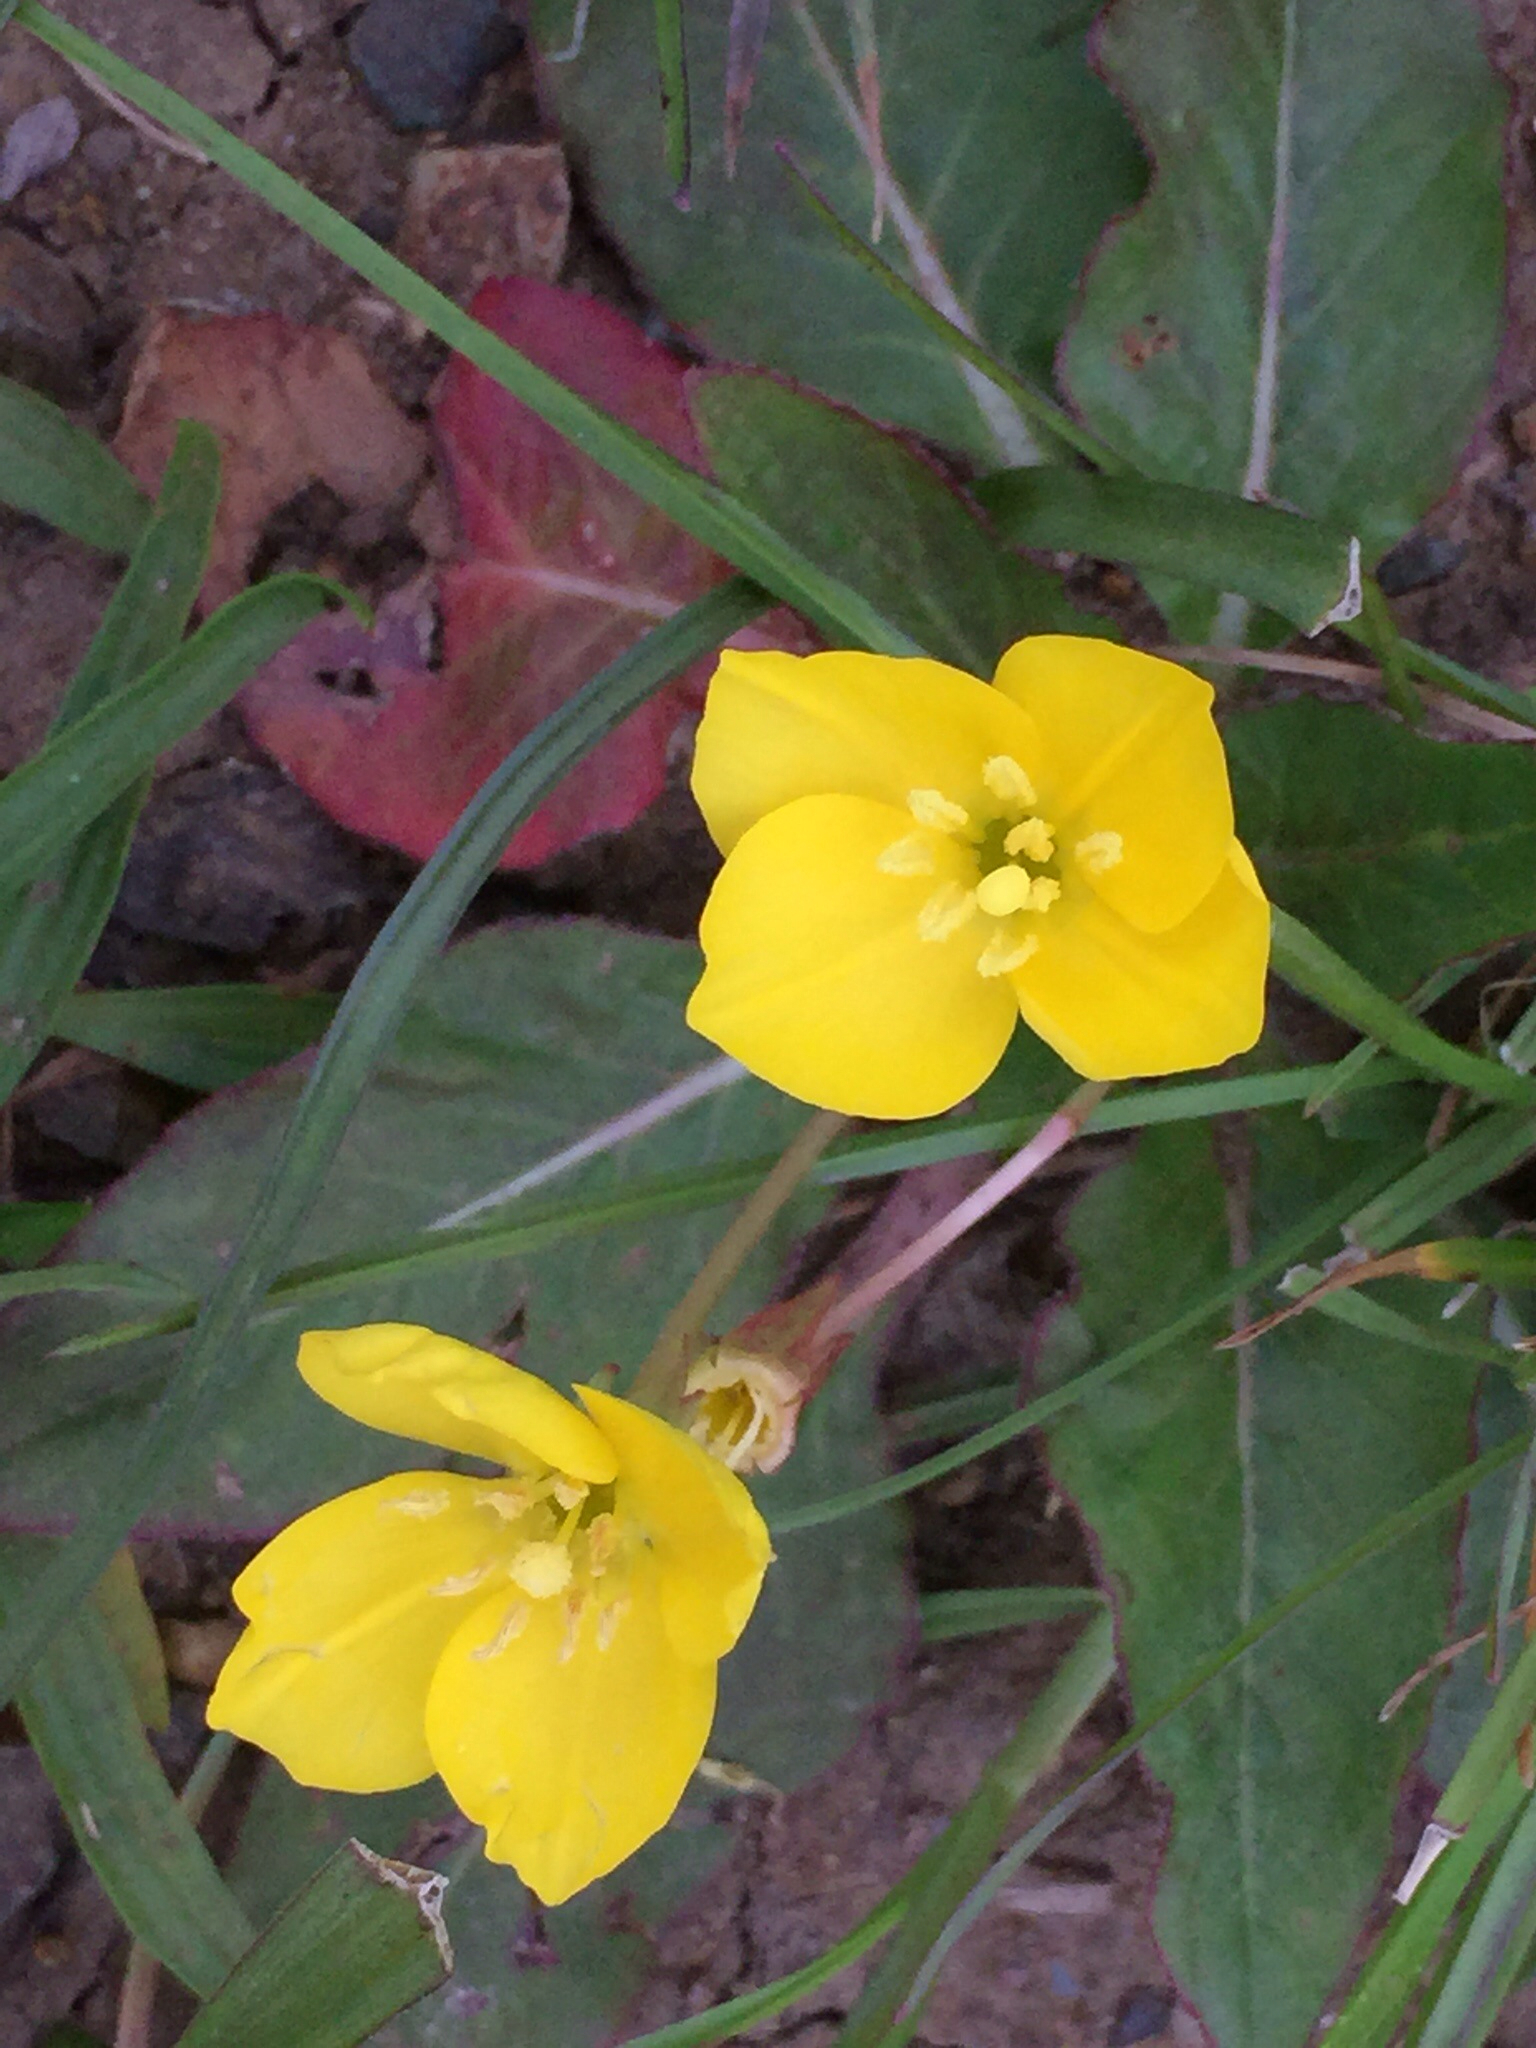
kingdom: Plantae
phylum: Tracheophyta
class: Magnoliopsida
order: Myrtales
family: Onagraceae
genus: Taraxia
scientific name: Taraxia ovata
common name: Goldeneggs
